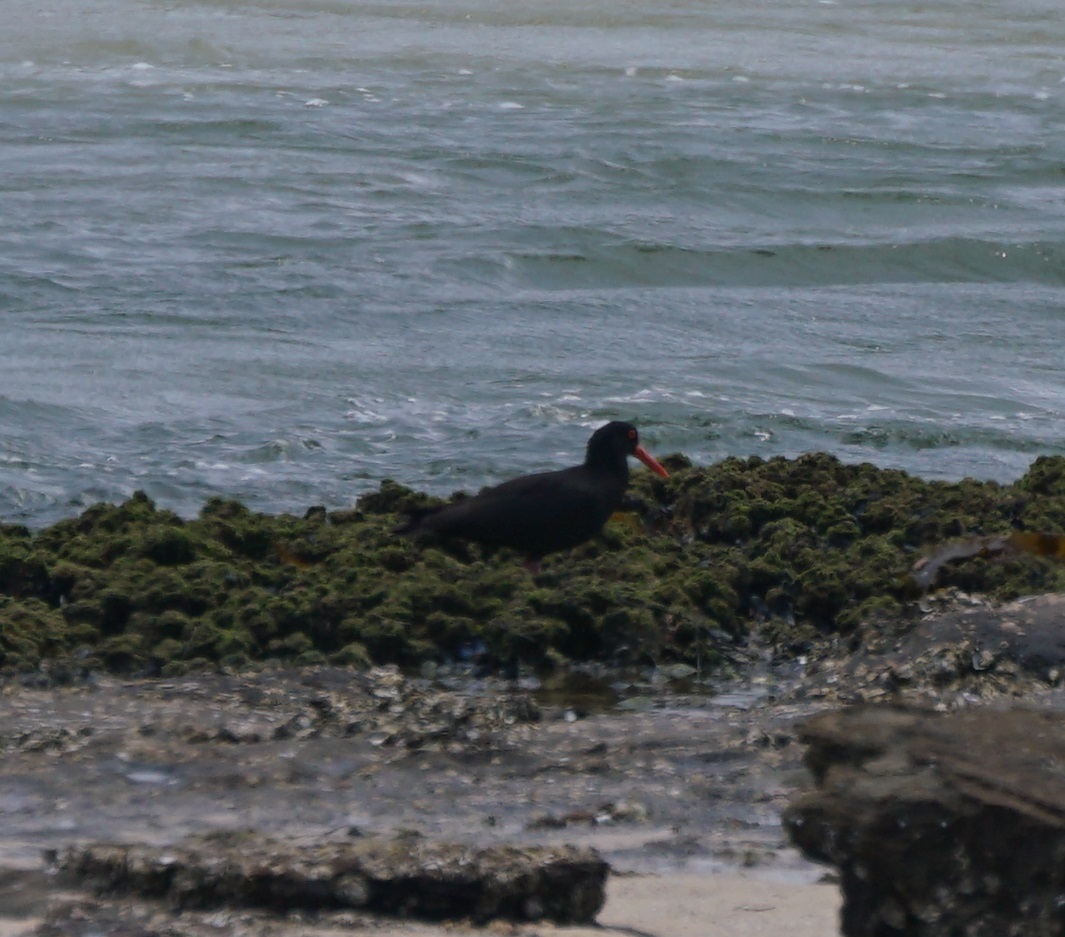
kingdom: Animalia
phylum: Chordata
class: Aves
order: Charadriiformes
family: Haematopodidae
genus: Haematopus
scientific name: Haematopus fuliginosus
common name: Sooty oystercatcher
